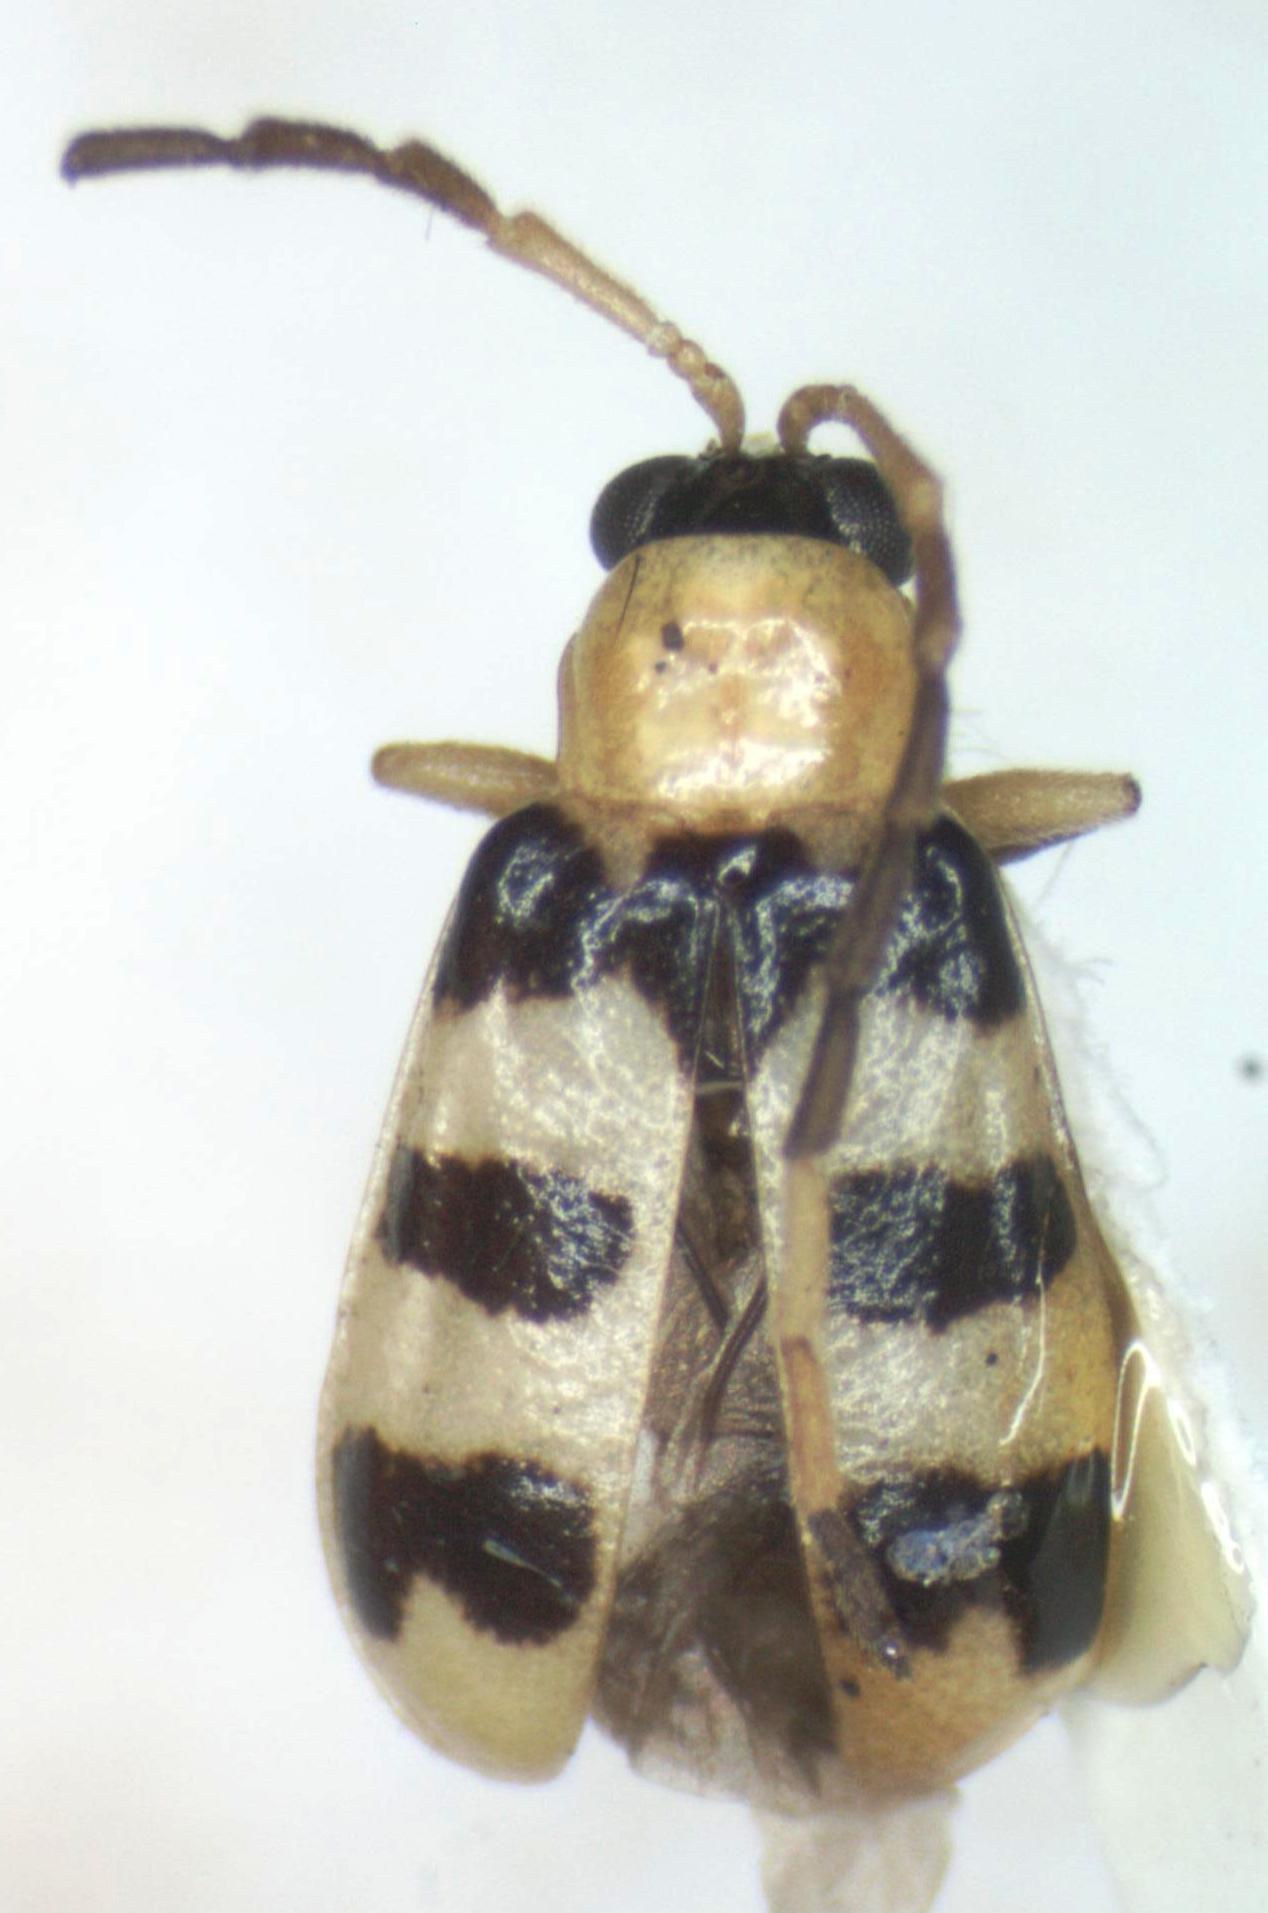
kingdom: Animalia
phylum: Arthropoda
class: Insecta
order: Coleoptera
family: Chrysomelidae
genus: Diabrotica
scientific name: Diabrotica
